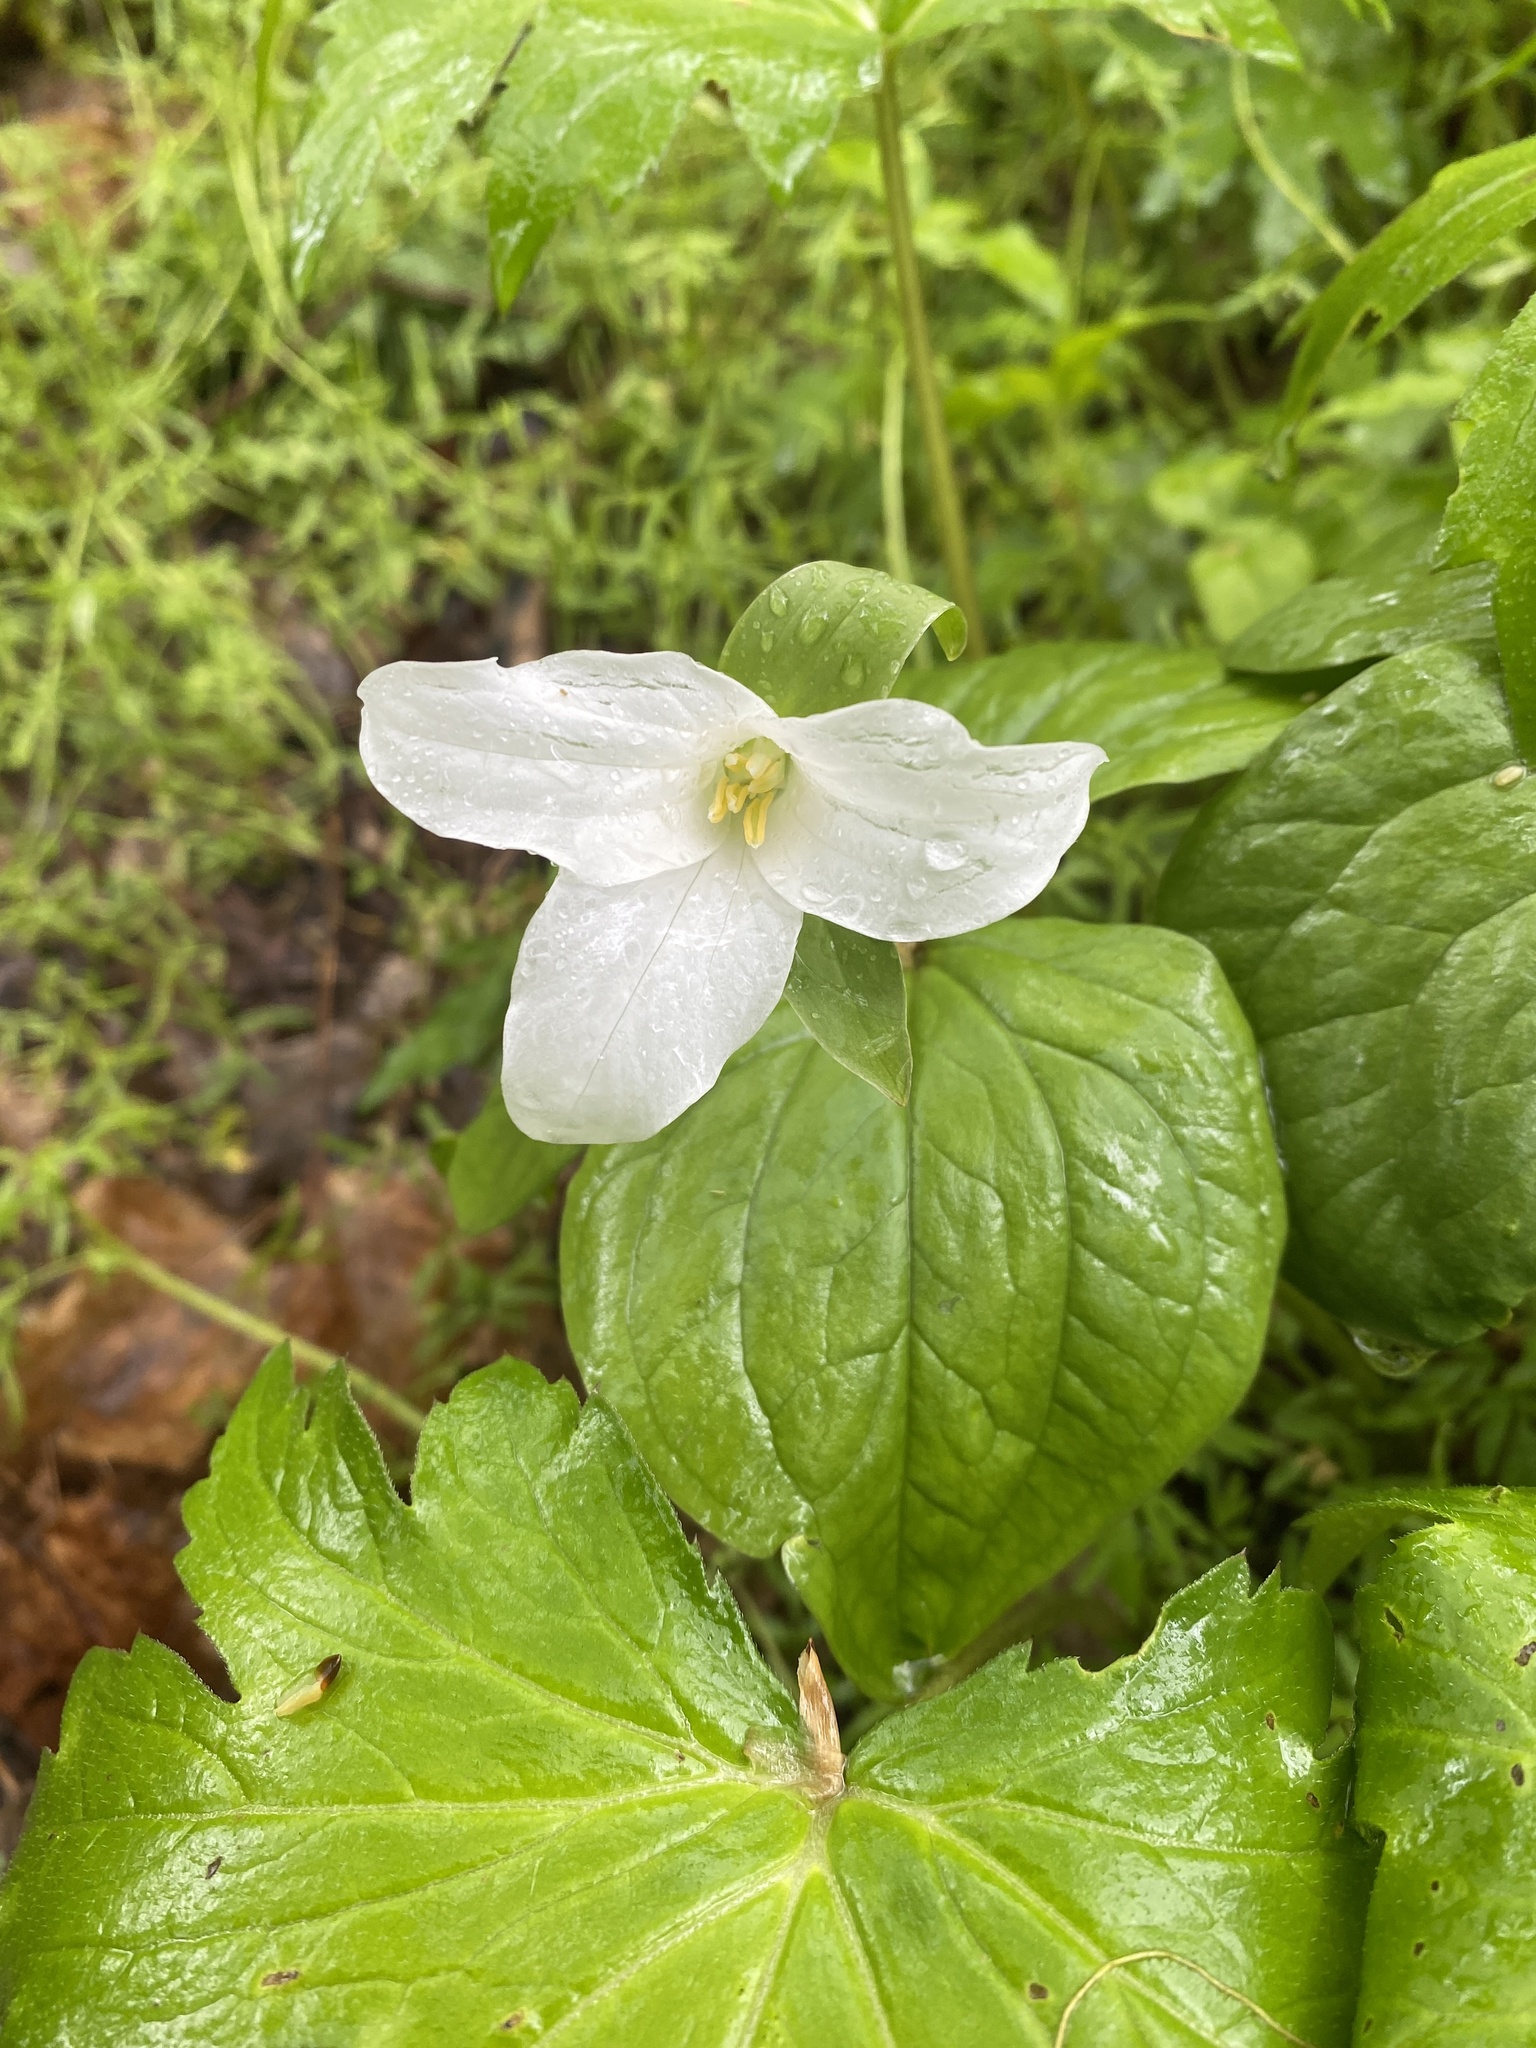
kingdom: Plantae
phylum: Tracheophyta
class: Liliopsida
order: Liliales
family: Melanthiaceae
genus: Trillium
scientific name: Trillium grandiflorum
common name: Great white trillium
